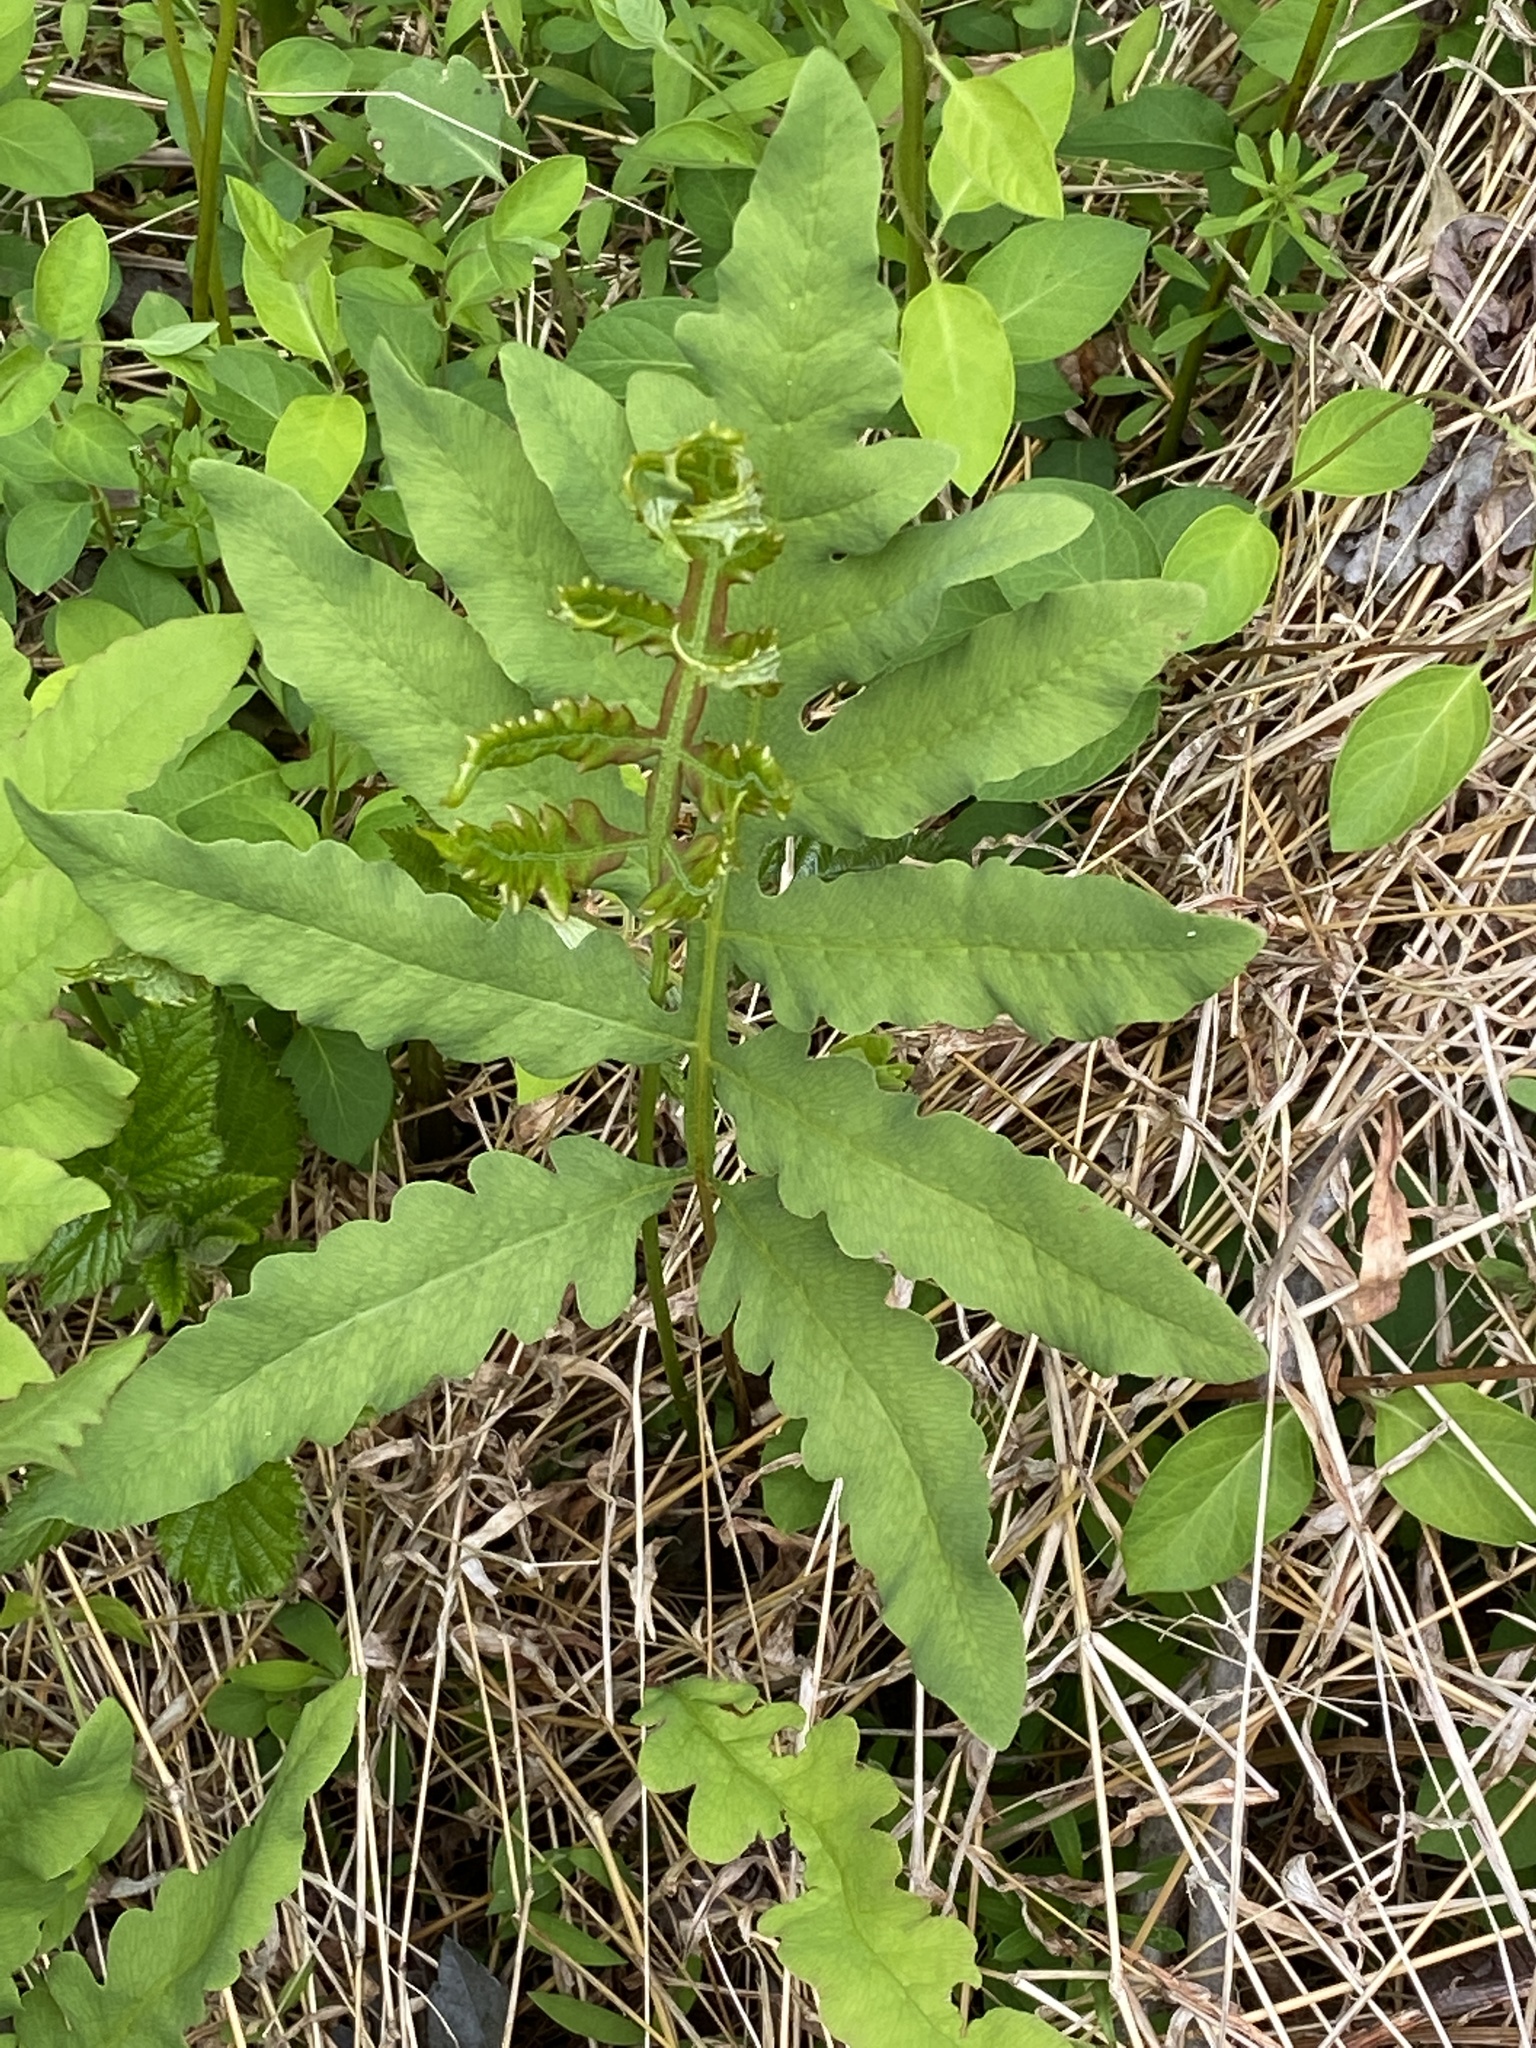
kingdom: Plantae
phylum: Tracheophyta
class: Polypodiopsida
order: Polypodiales
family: Blechnaceae
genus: Lorinseria
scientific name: Lorinseria areolata
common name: Dwarf chain fern
